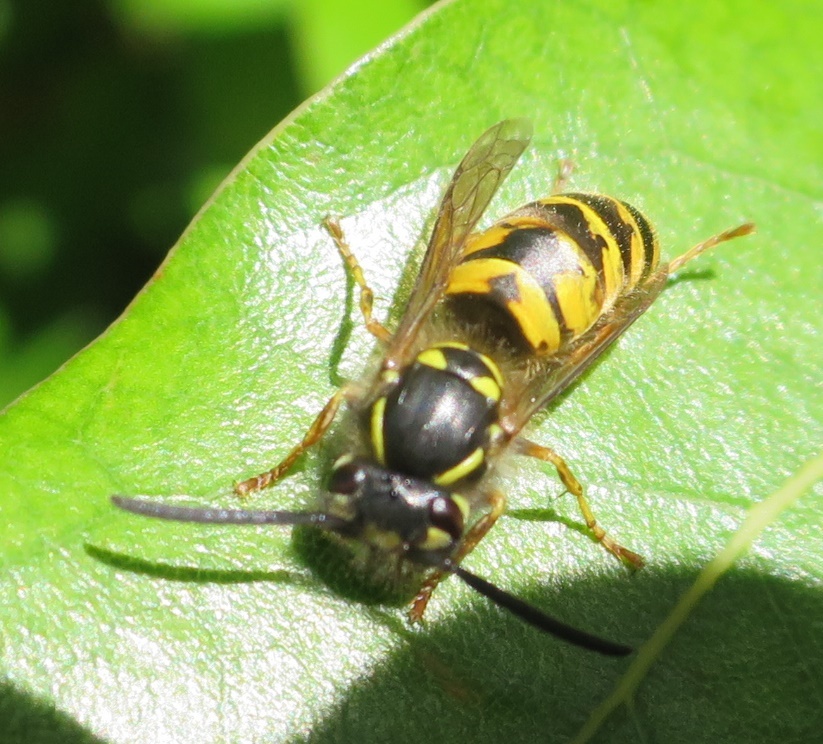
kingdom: Animalia
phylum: Arthropoda
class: Insecta
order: Hymenoptera
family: Vespidae
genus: Vespula
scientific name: Vespula vulgaris
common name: Common wasp
